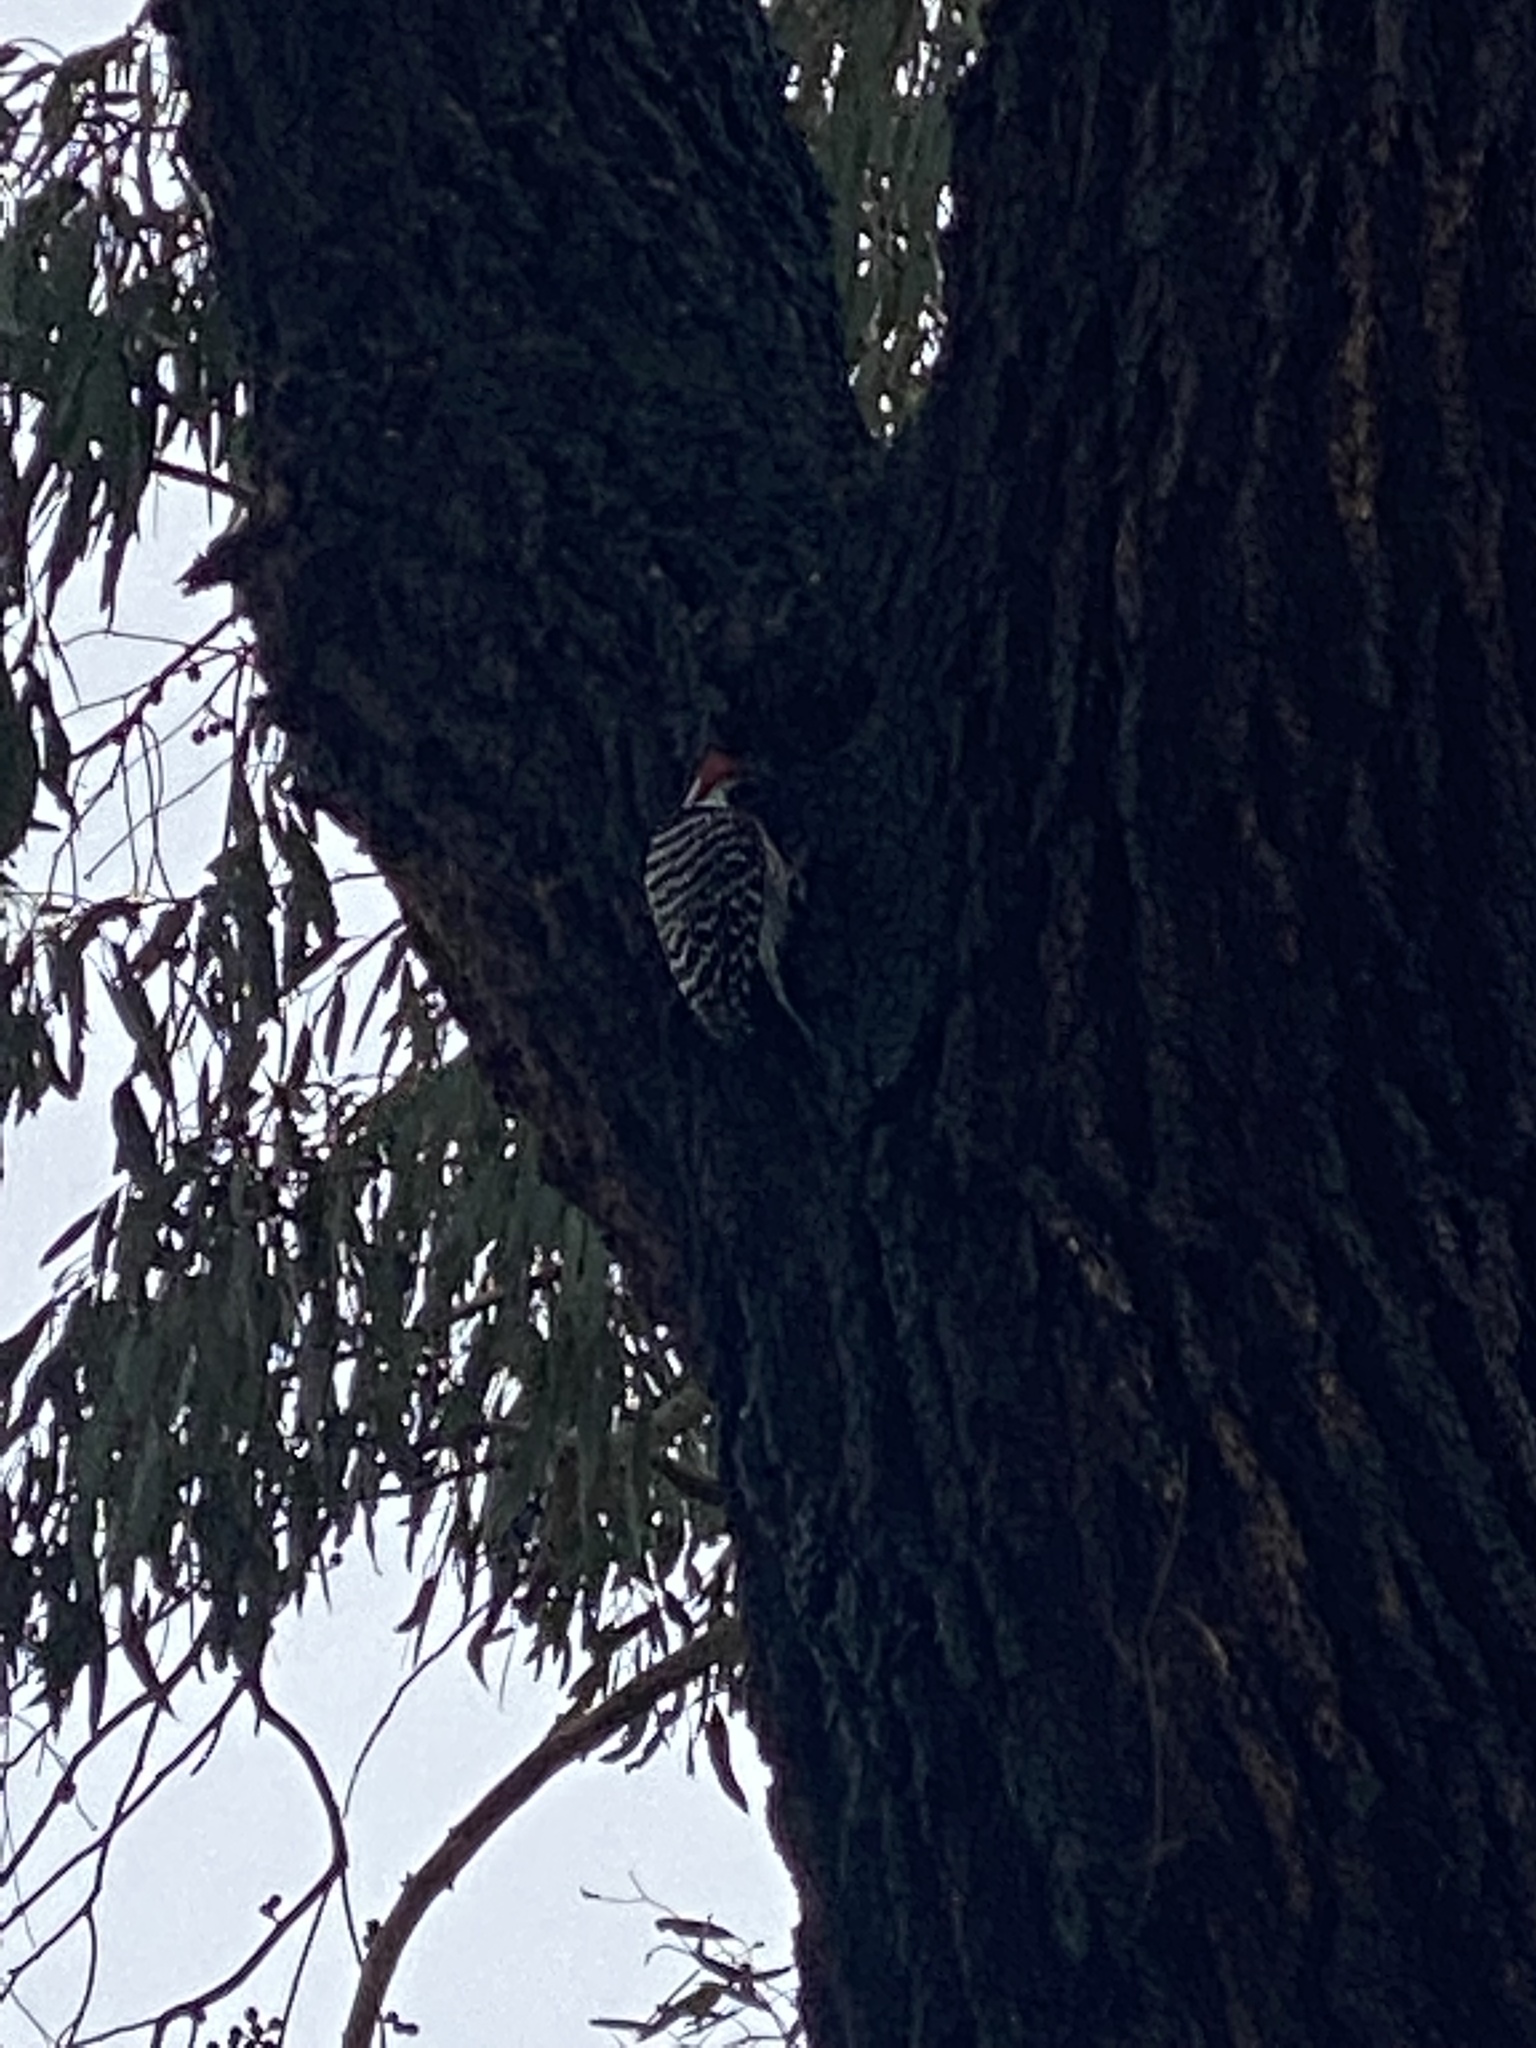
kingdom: Animalia
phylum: Chordata
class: Aves
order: Piciformes
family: Picidae
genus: Dryobates
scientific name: Dryobates nuttallii
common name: Nuttall's woodpecker
